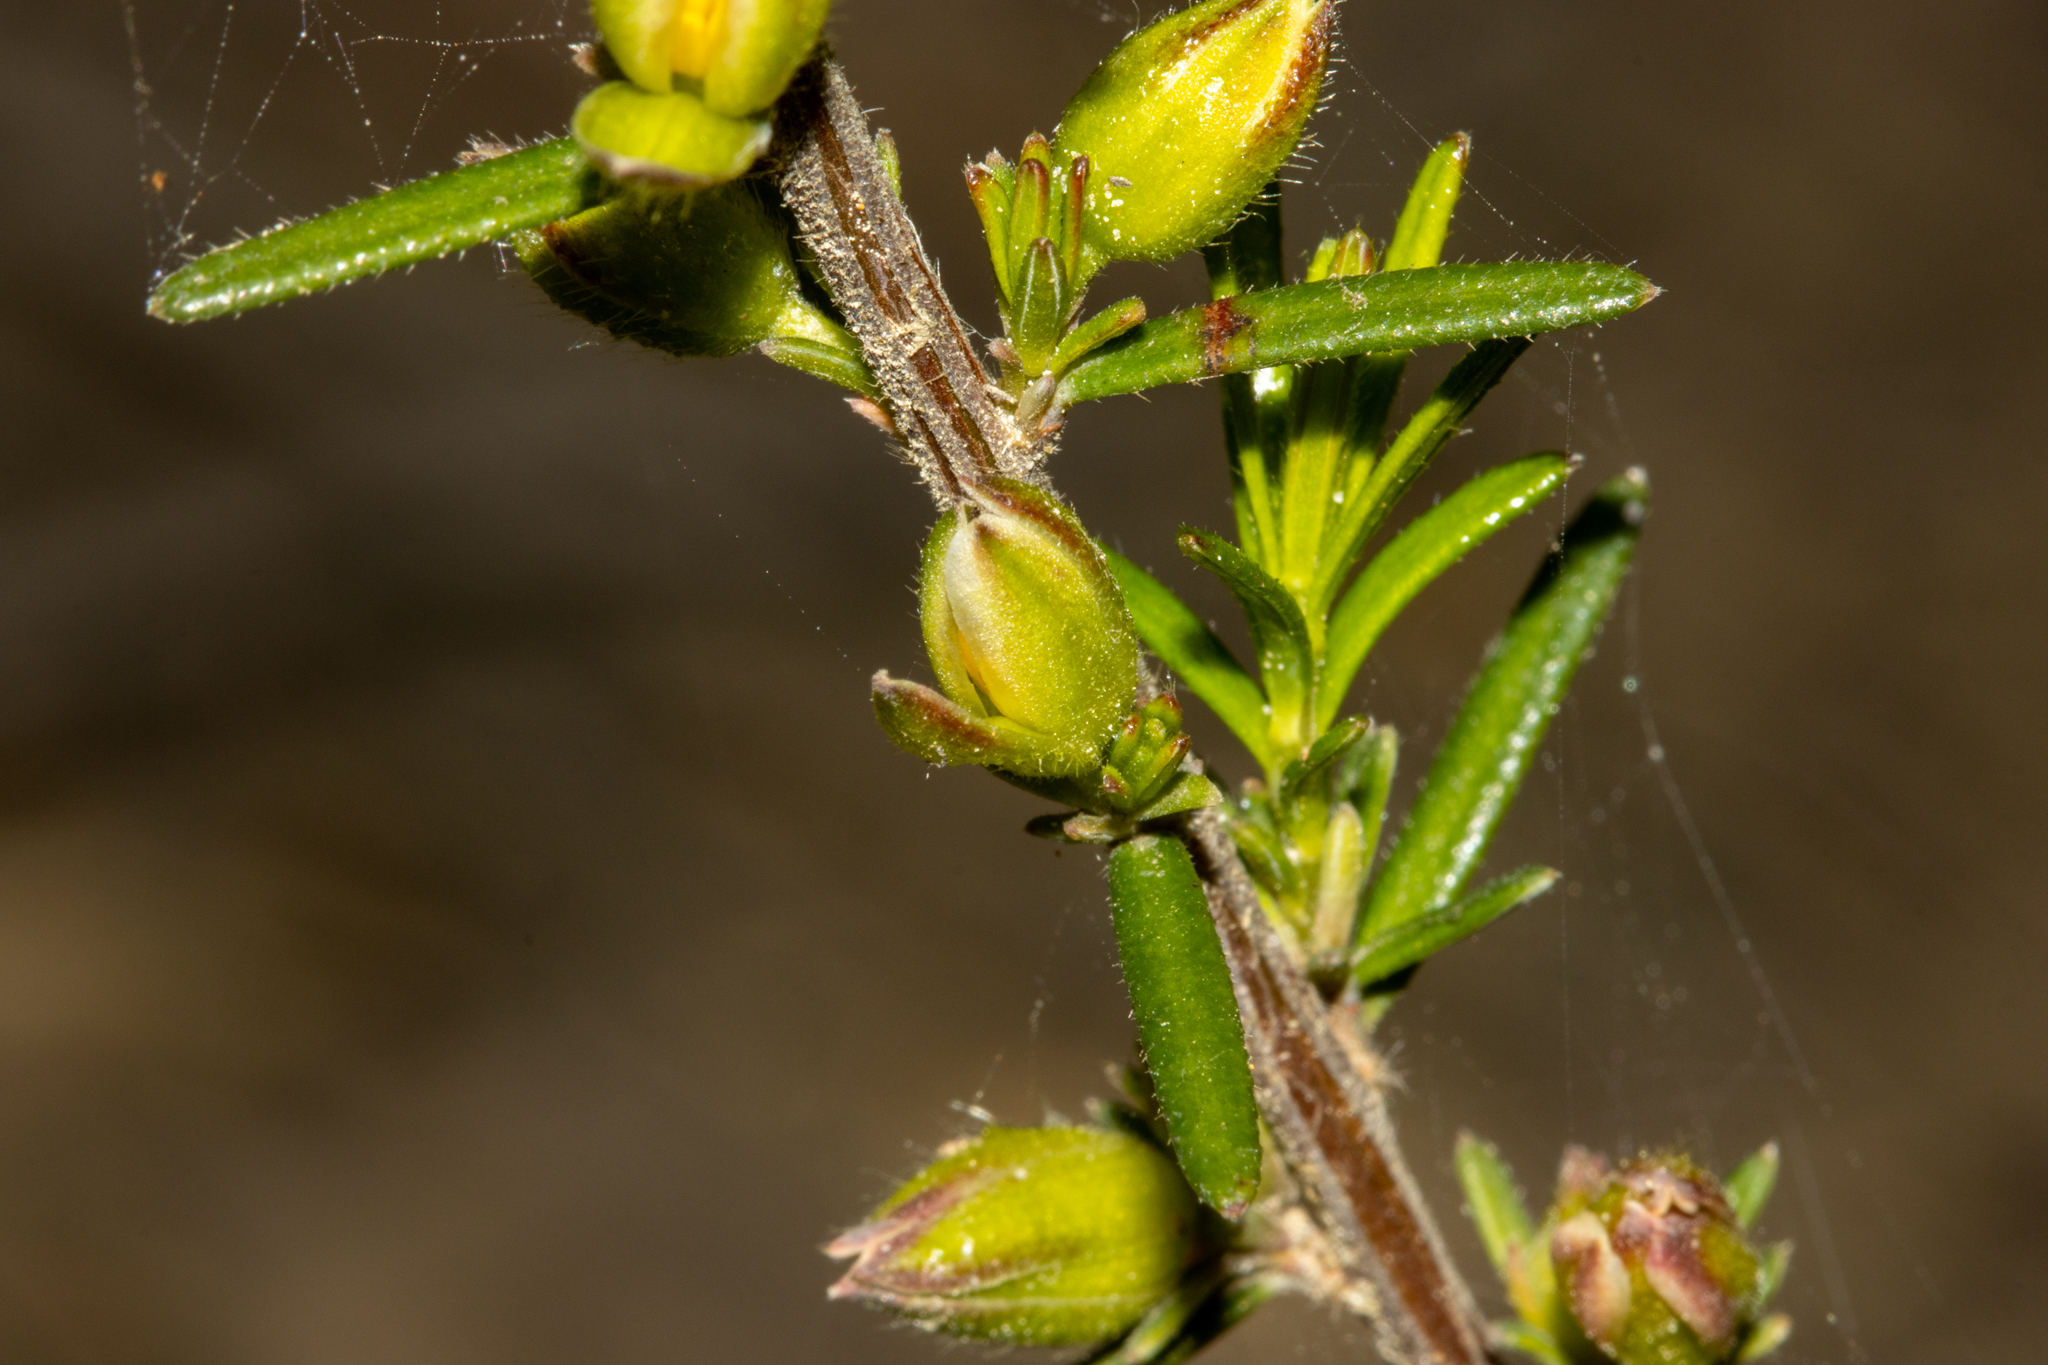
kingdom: Plantae
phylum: Tracheophyta
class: Magnoliopsida
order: Dilleniales
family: Dilleniaceae
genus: Hibbertia
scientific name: Hibbertia riparia
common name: Erect guinea-flower
